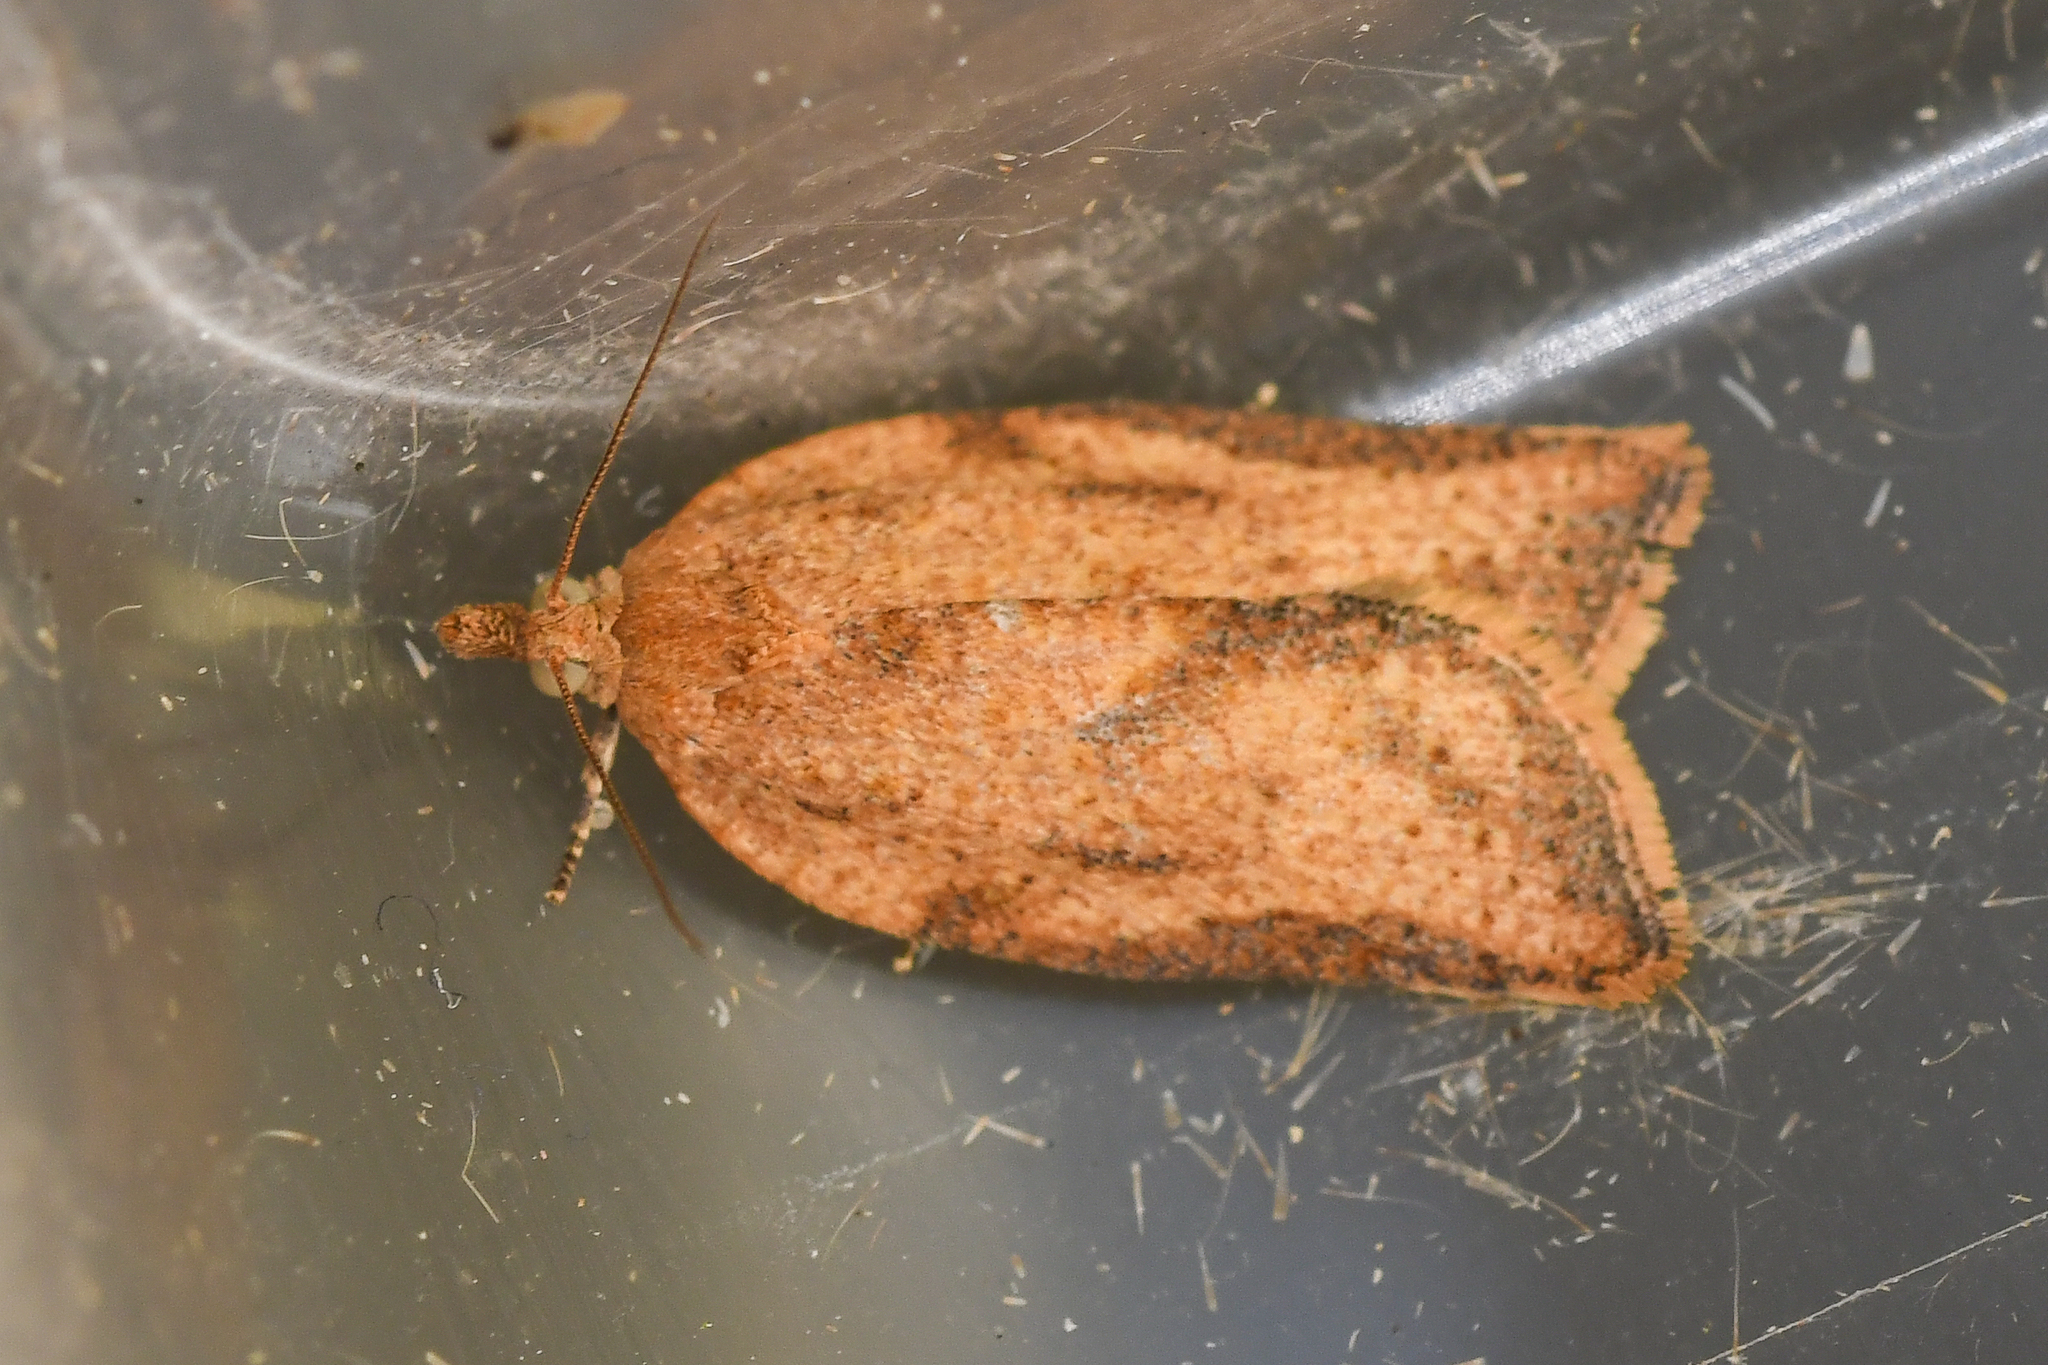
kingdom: Animalia
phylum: Arthropoda
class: Insecta
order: Lepidoptera
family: Tortricidae
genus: Epiphyas
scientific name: Epiphyas postvittana
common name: Light brown apple moth
